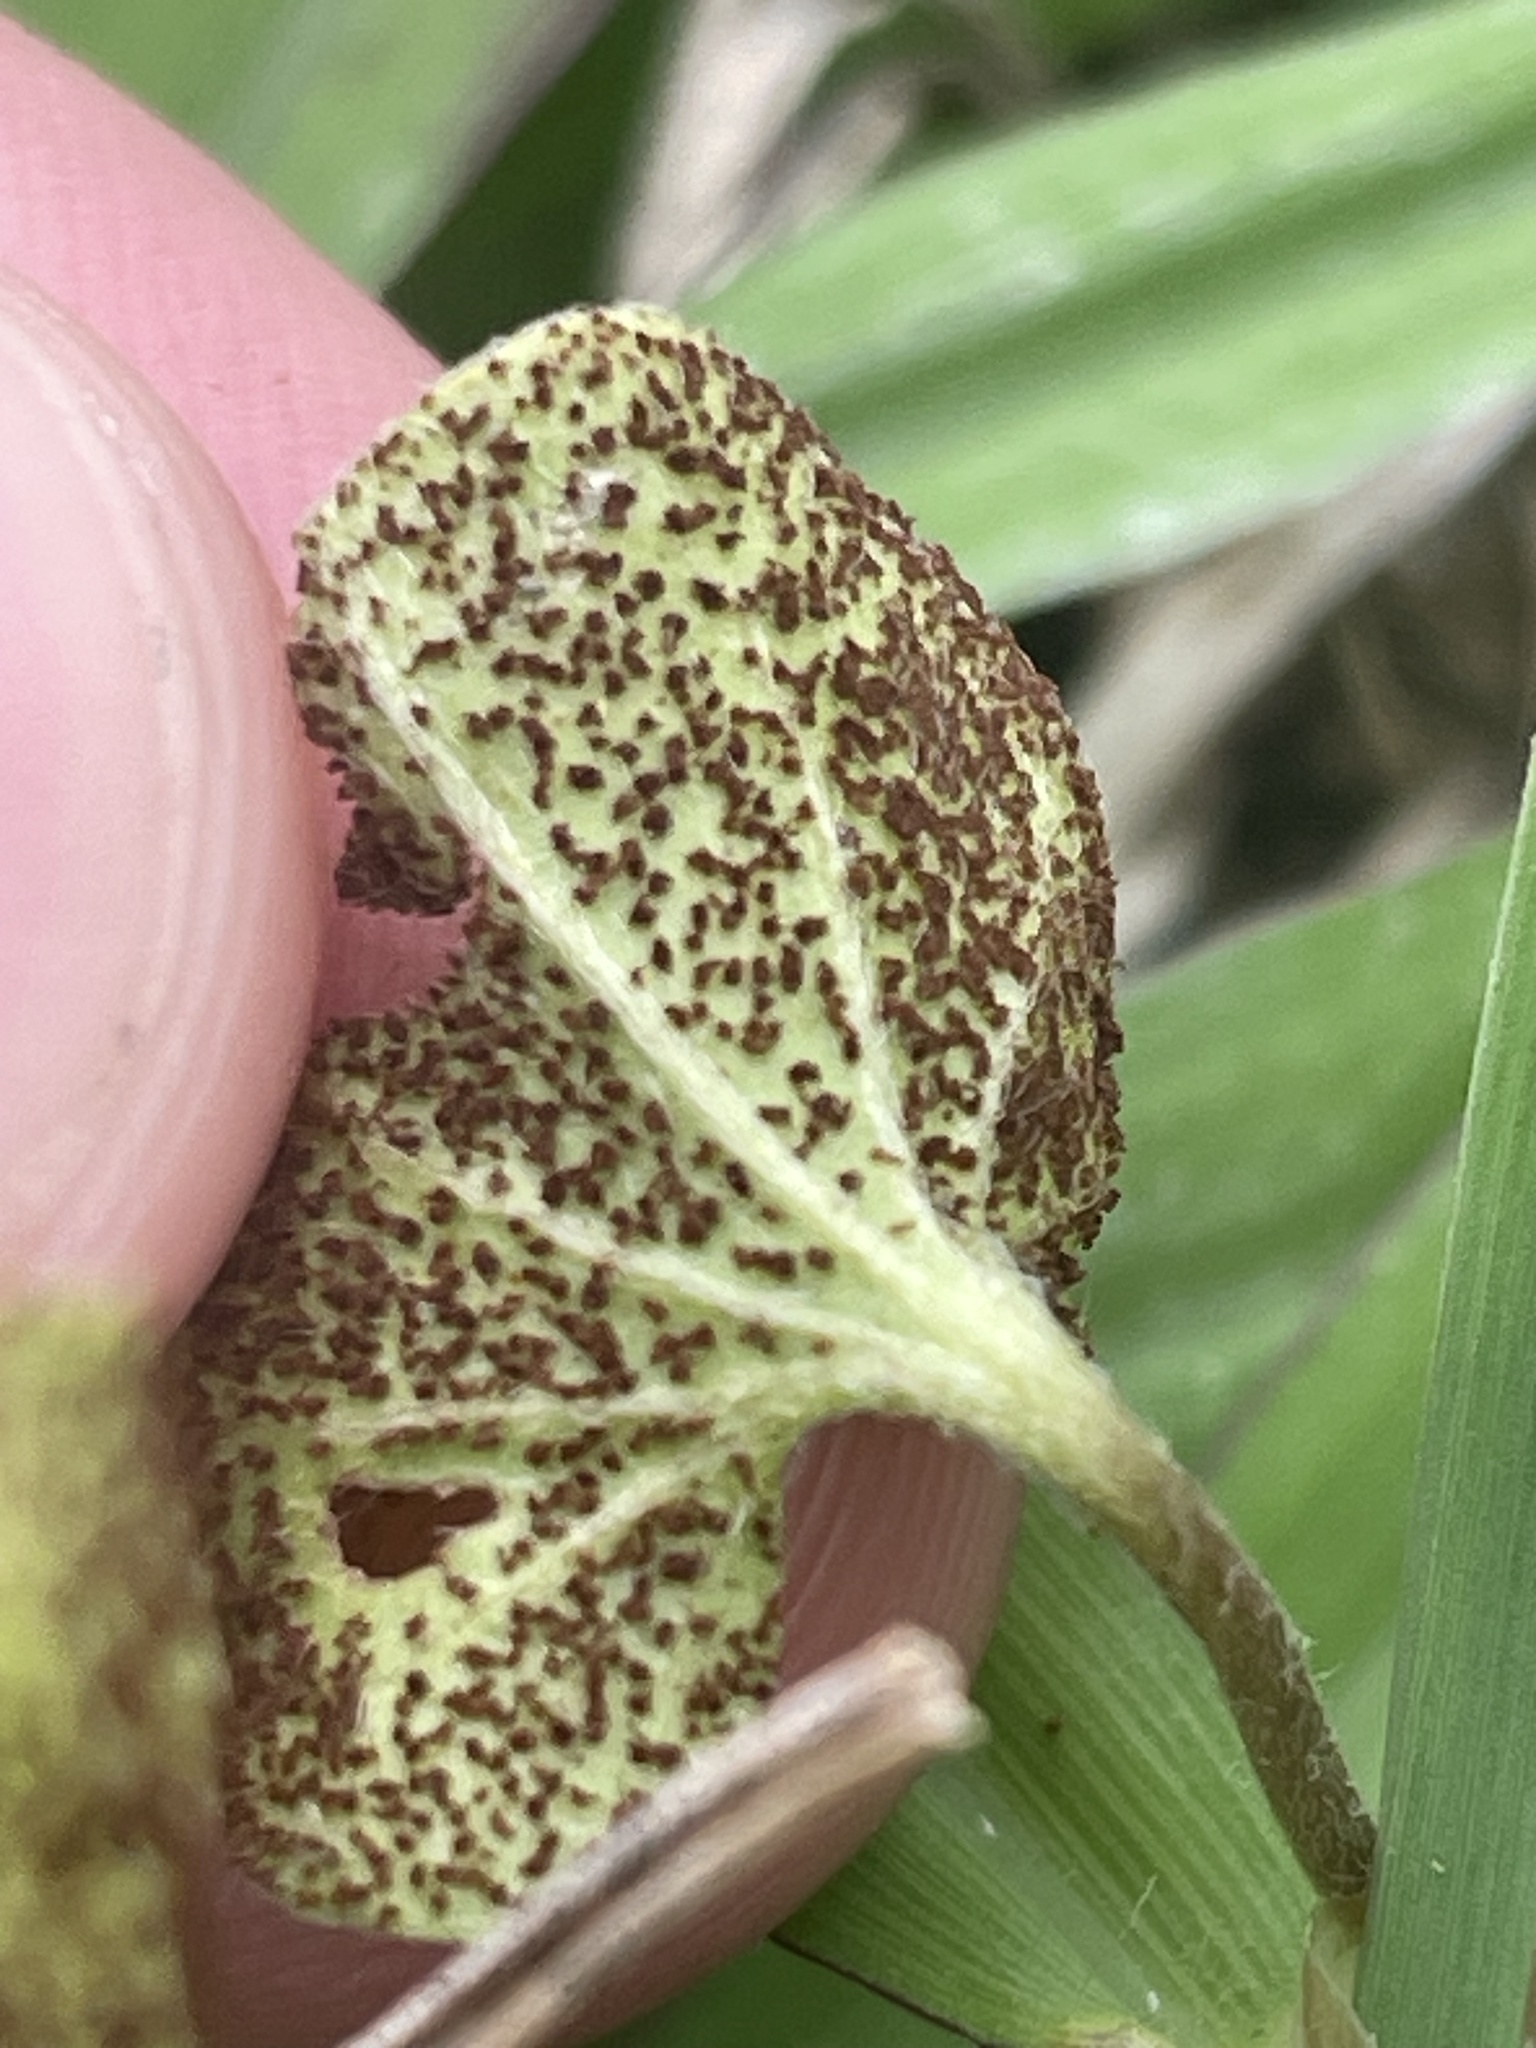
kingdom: Fungi
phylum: Basidiomycota
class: Pucciniomycetes
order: Pucciniales
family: Pucciniaceae
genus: Puccinia
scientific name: Puccinia dichondrae
